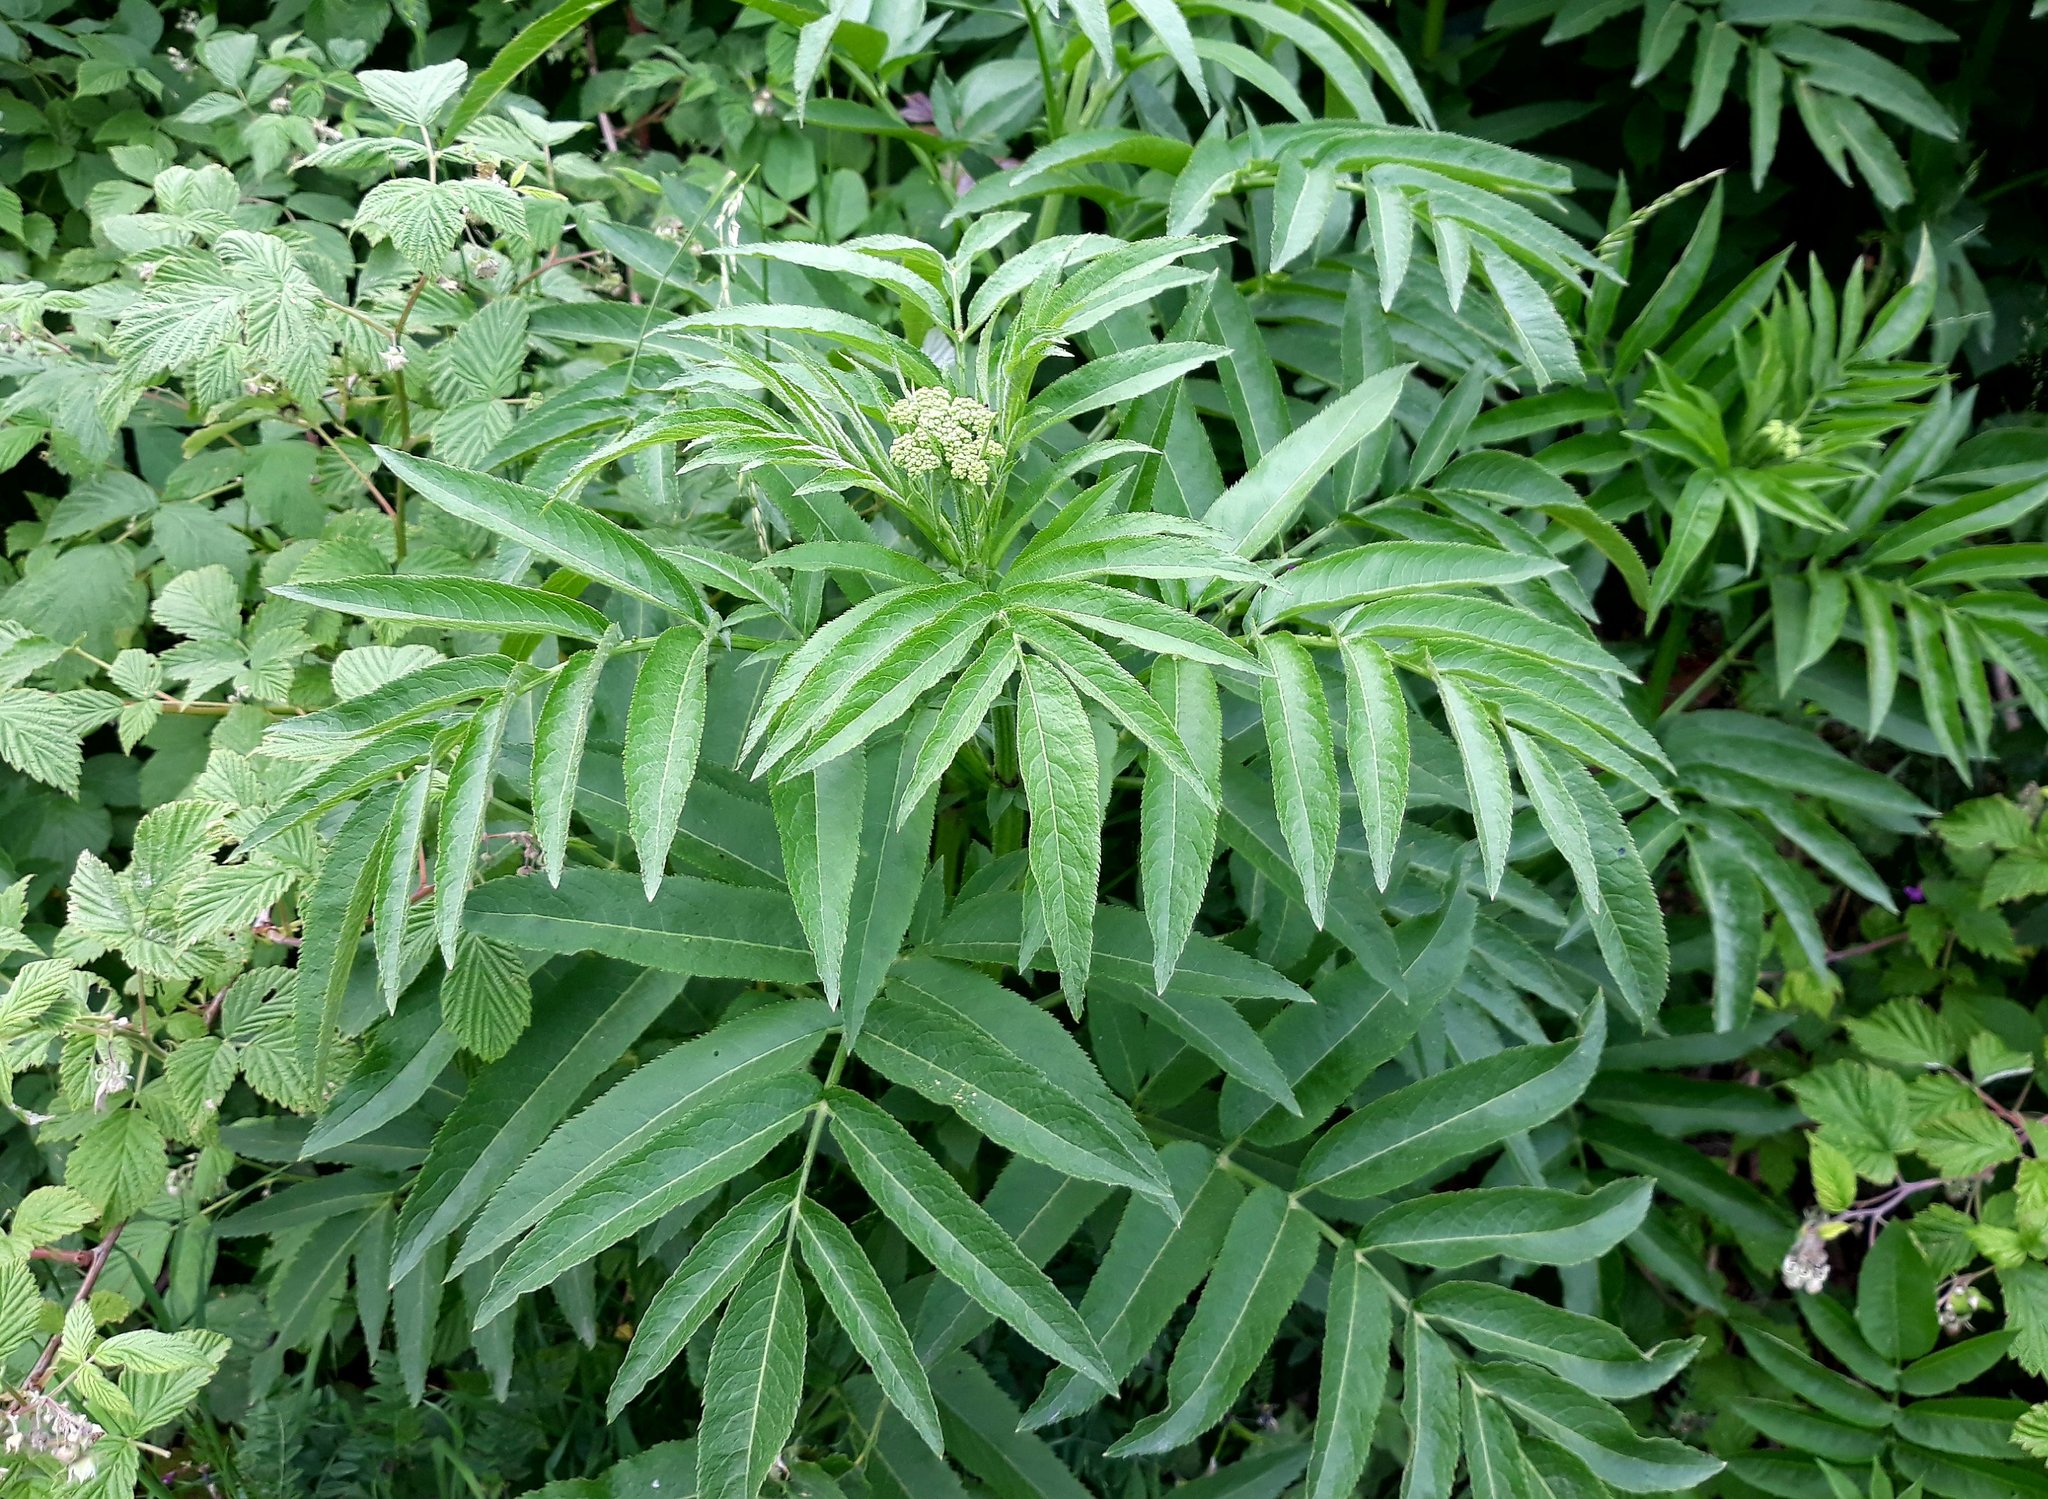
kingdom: Plantae
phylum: Tracheophyta
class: Magnoliopsida
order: Dipsacales
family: Viburnaceae
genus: Sambucus
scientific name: Sambucus ebulus
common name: Dwarf elder
